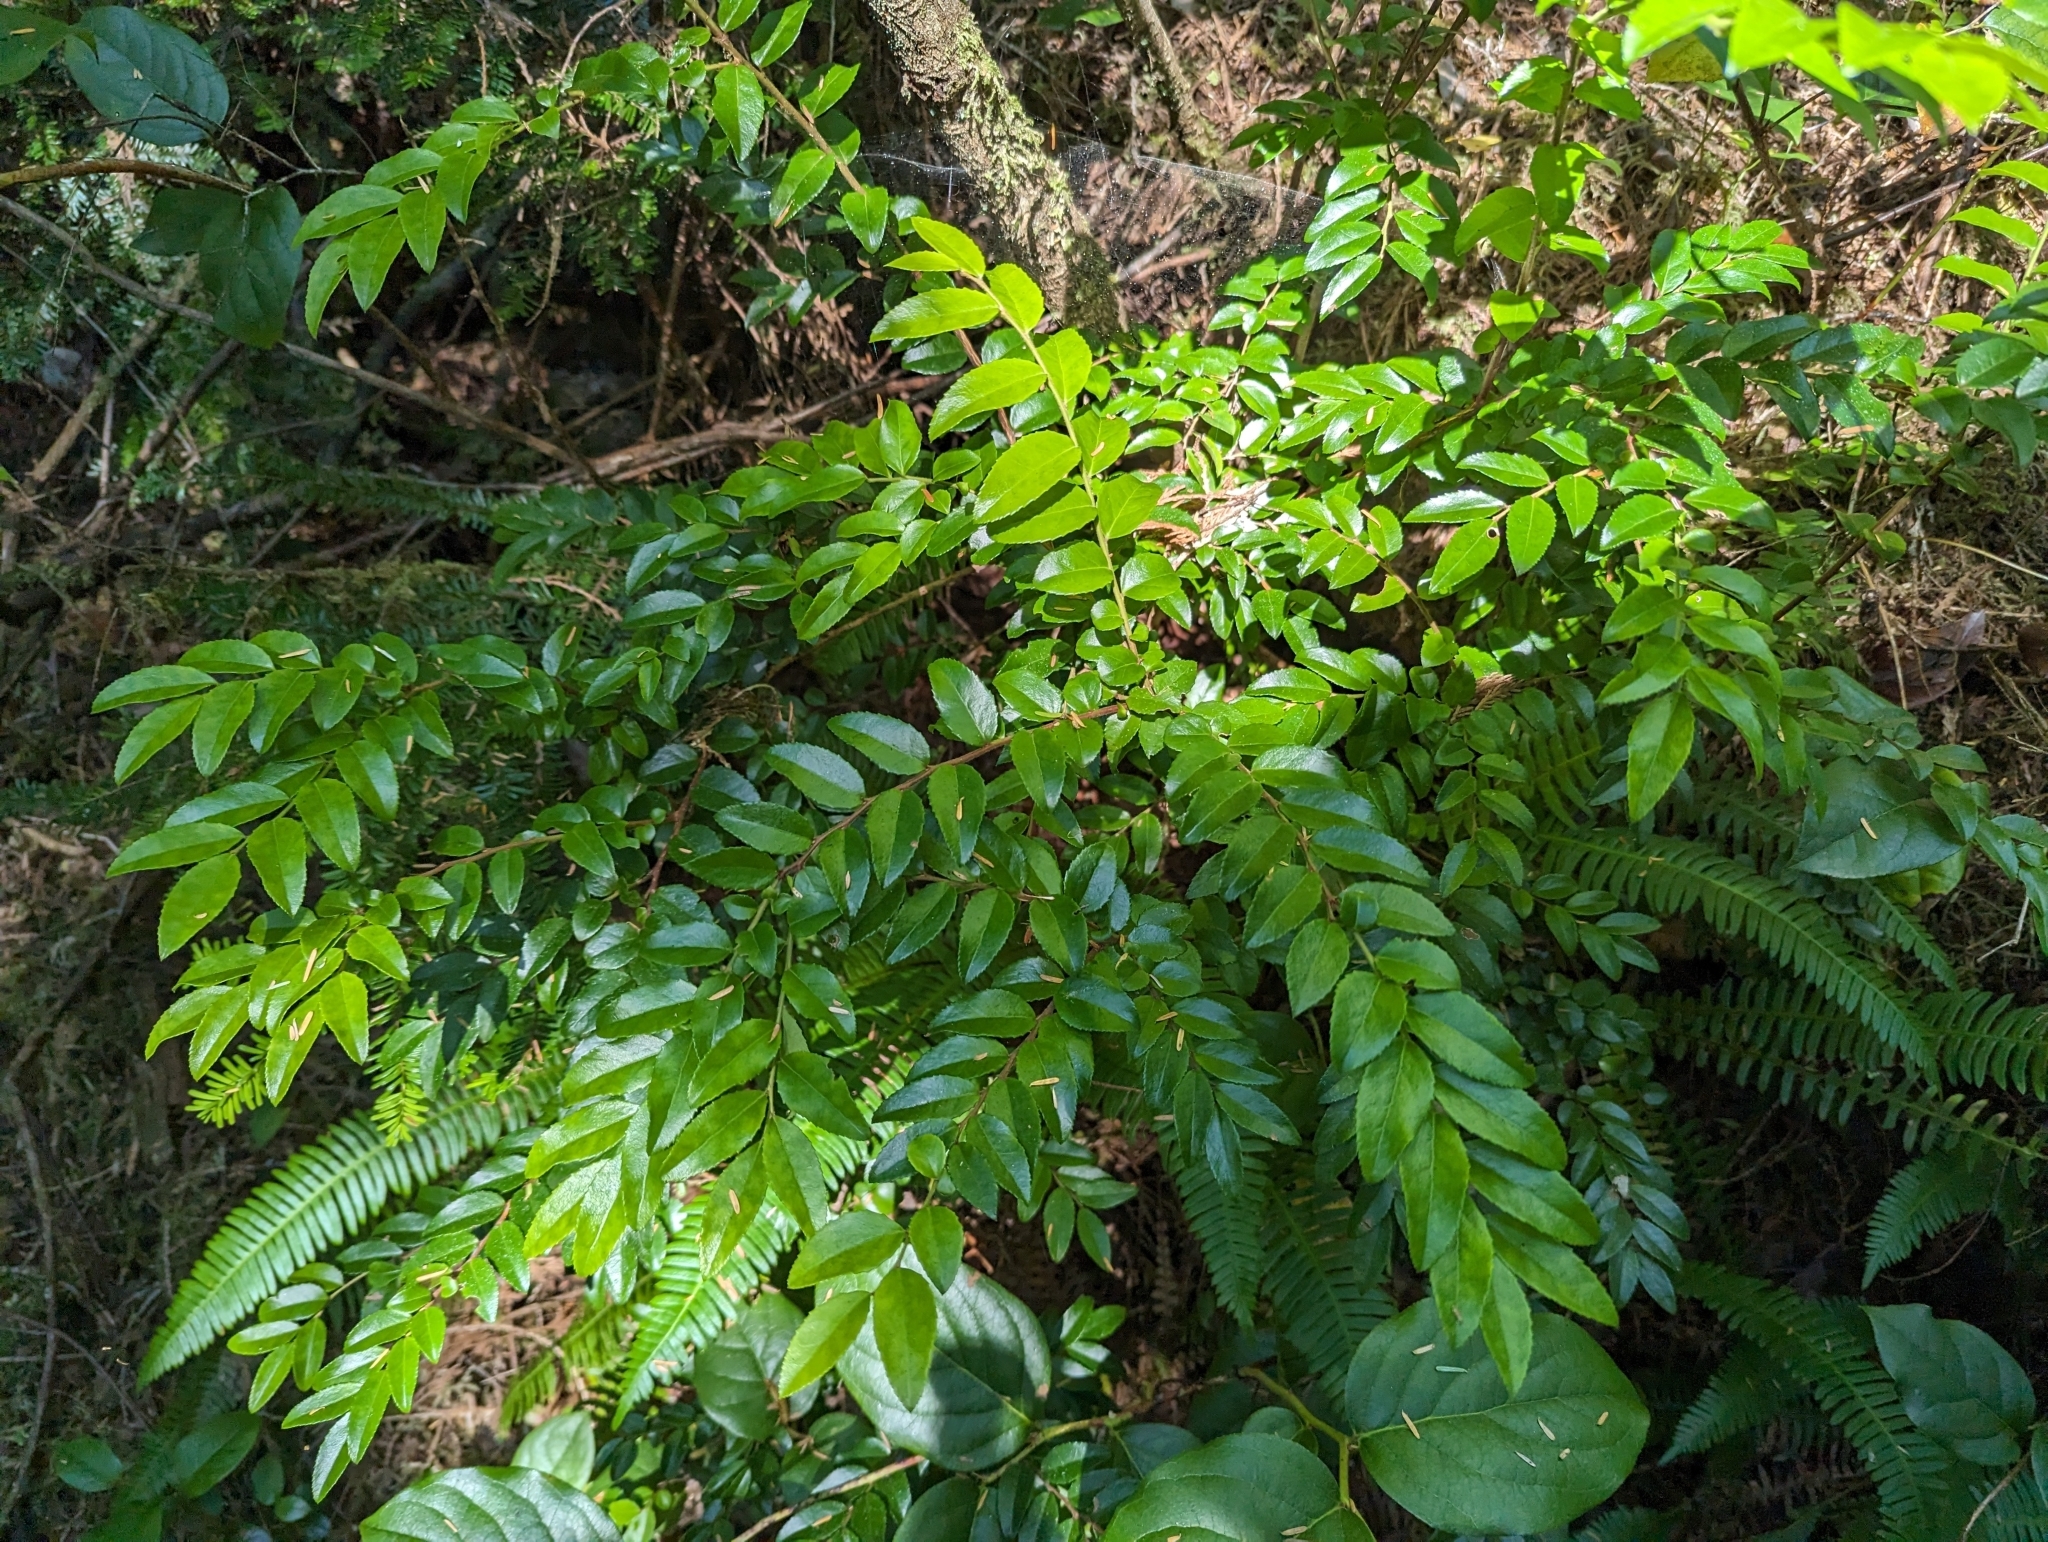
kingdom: Plantae
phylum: Tracheophyta
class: Magnoliopsida
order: Ericales
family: Ericaceae
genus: Vaccinium
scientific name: Vaccinium ovatum
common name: California-huckleberry
